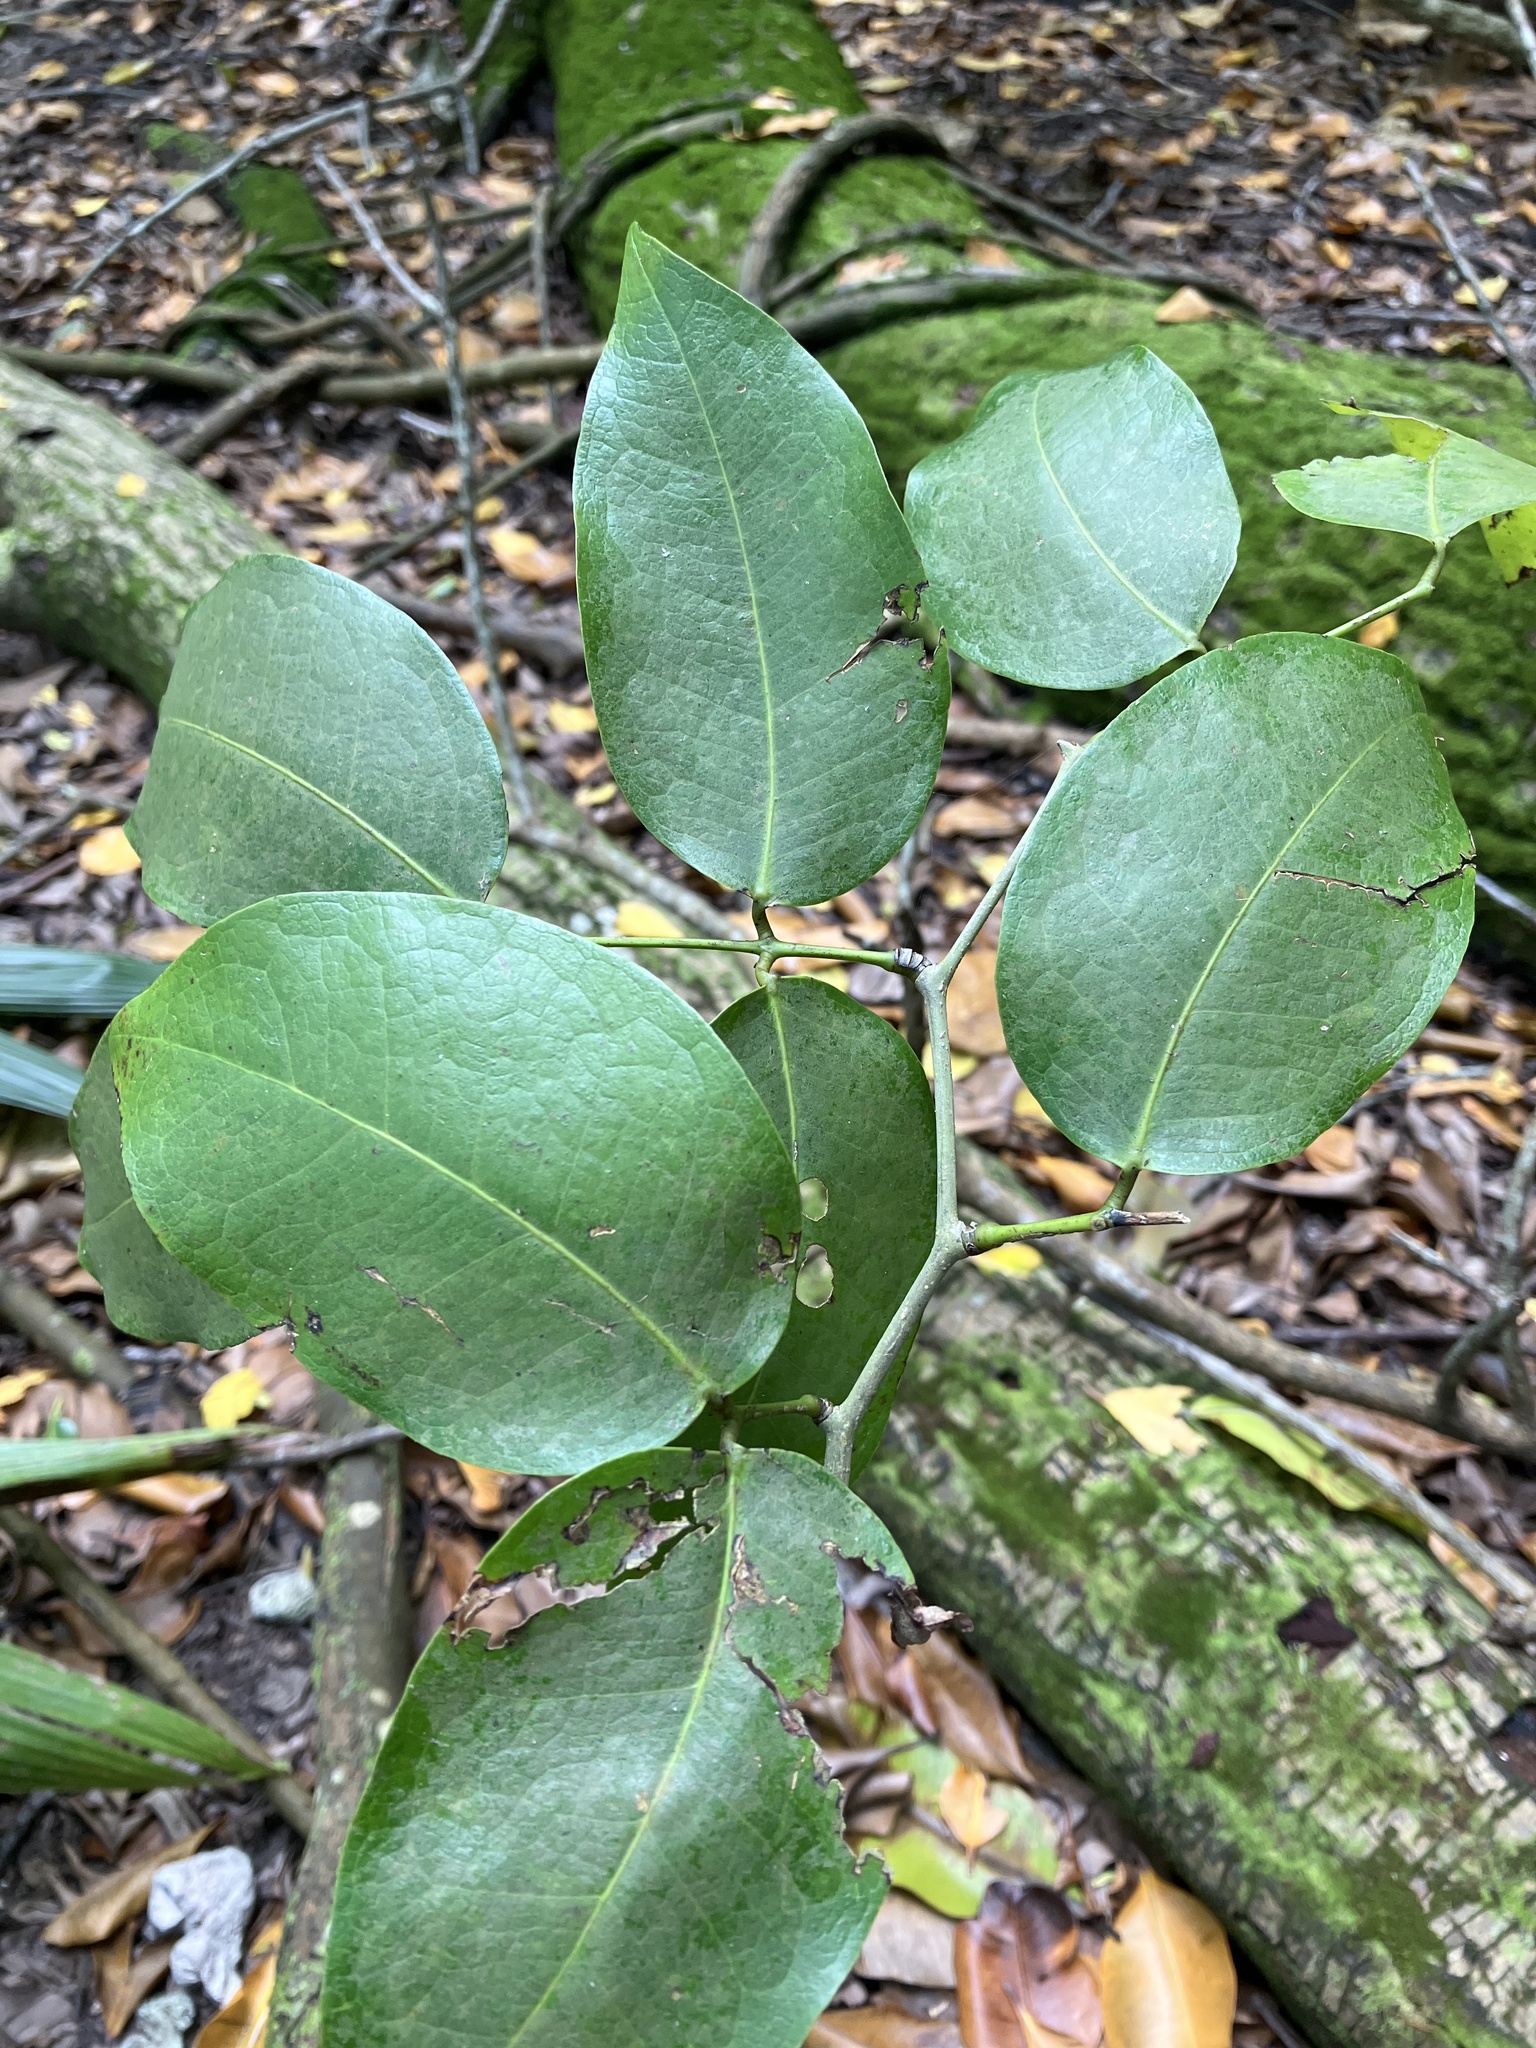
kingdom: Plantae
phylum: Tracheophyta
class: Magnoliopsida
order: Fabales
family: Fabaceae
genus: Intsia
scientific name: Intsia bijuga
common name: Moluccan ironwood
